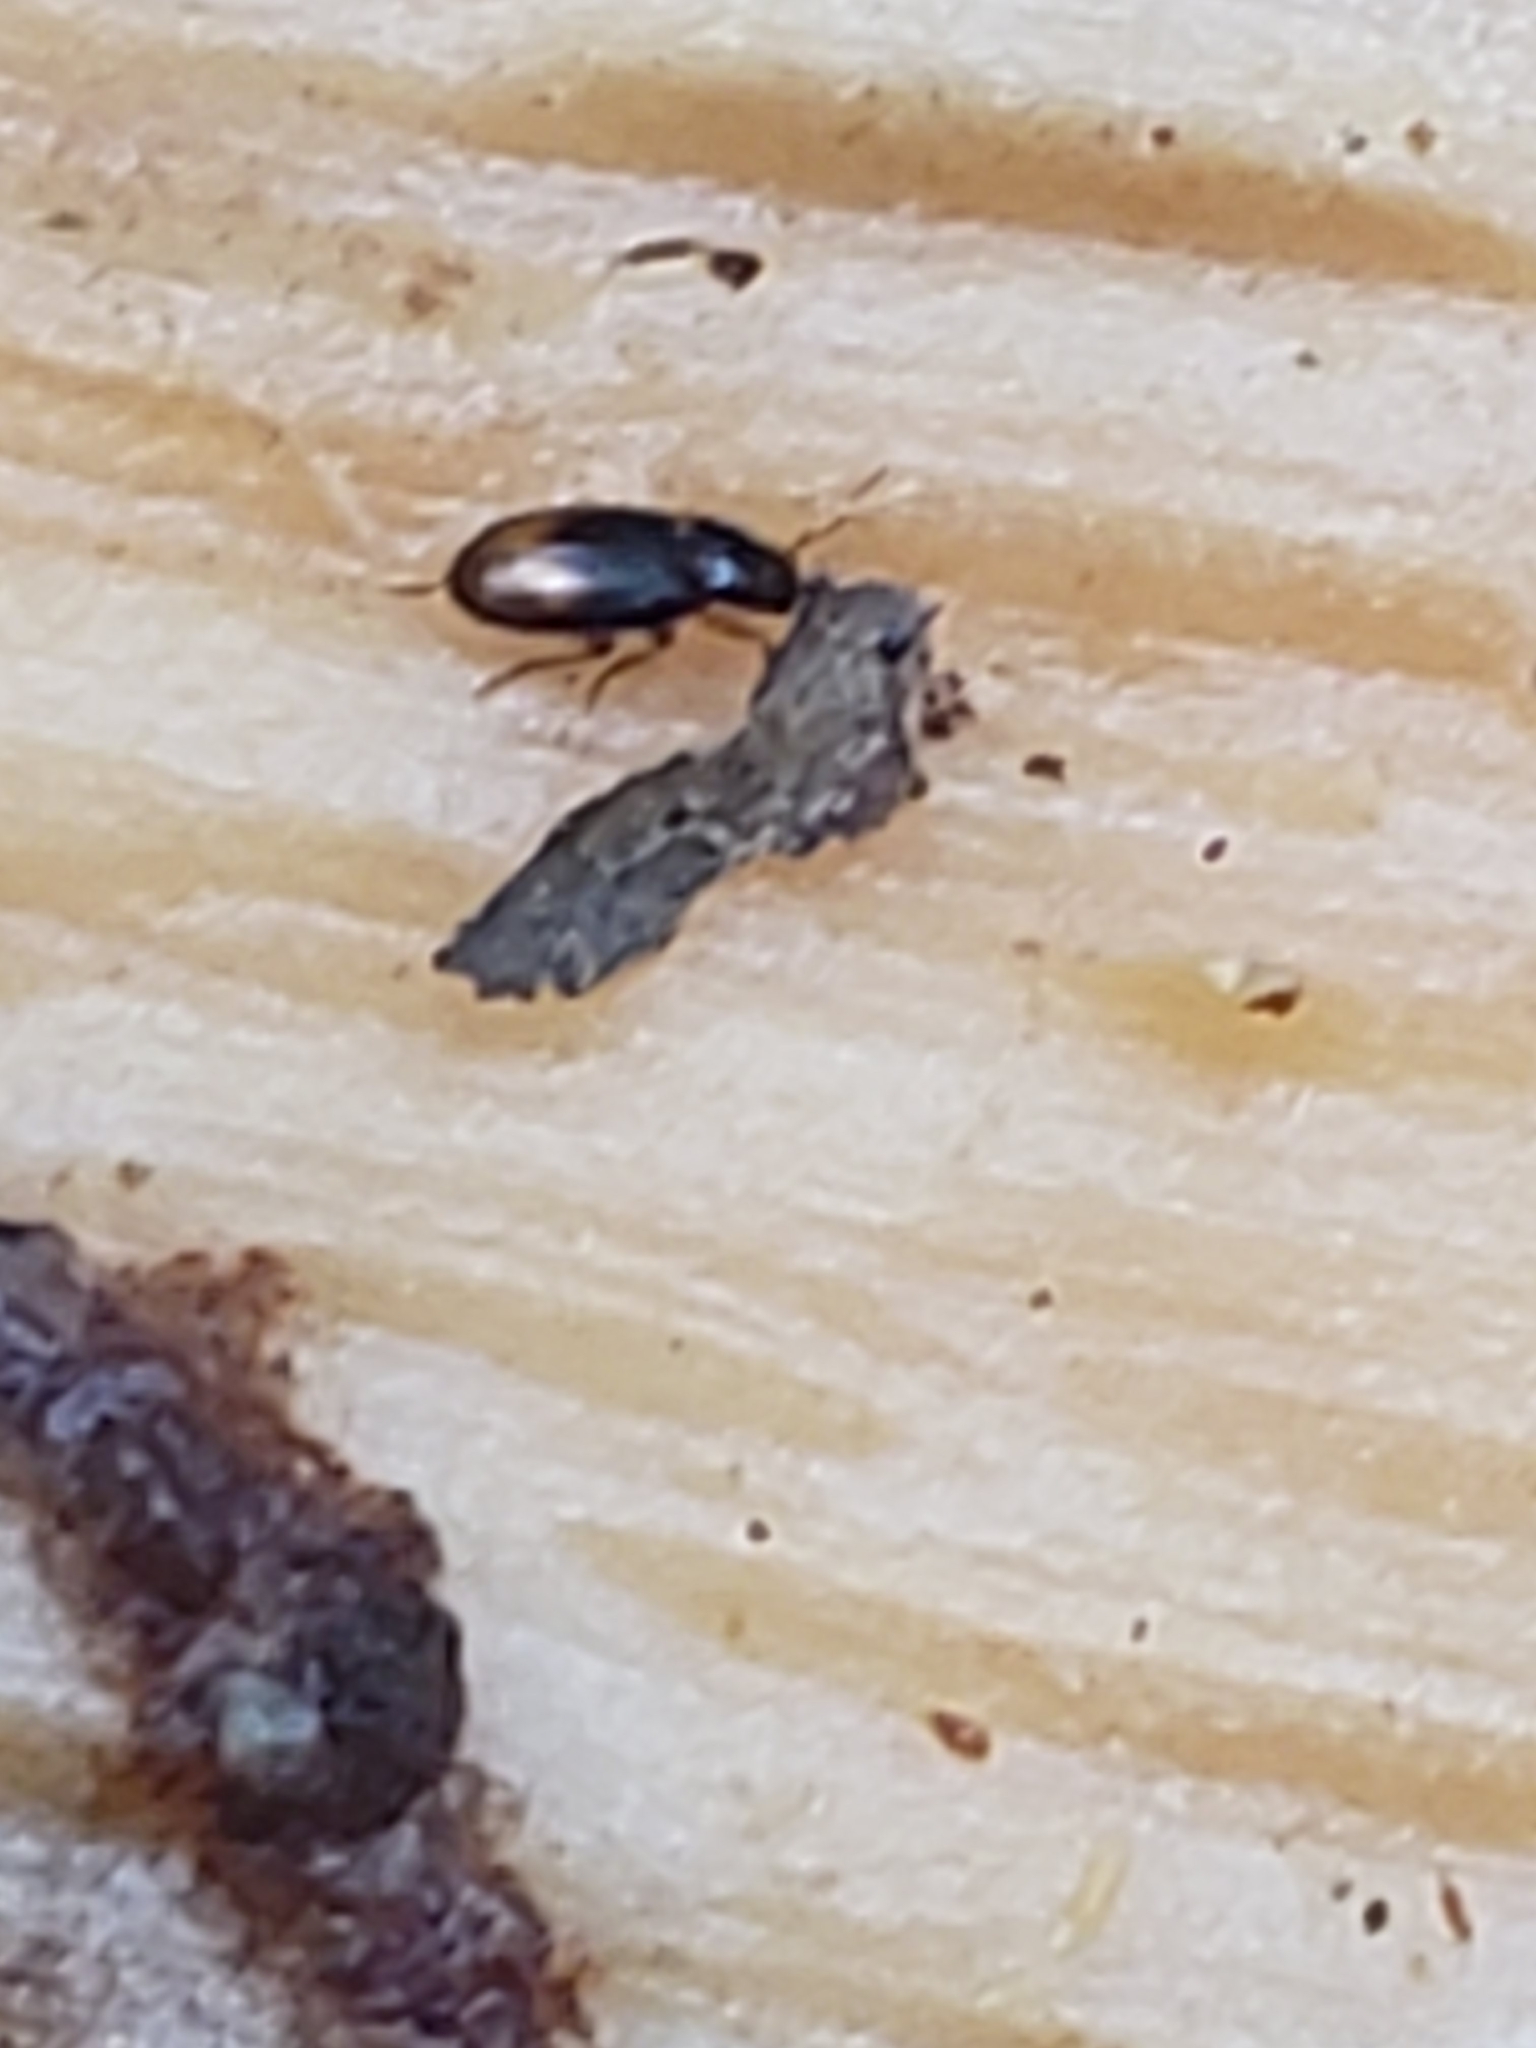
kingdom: Animalia
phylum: Arthropoda
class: Insecta
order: Coleoptera
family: Carabidae
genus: Mioptachys
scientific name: Mioptachys flavicauda
